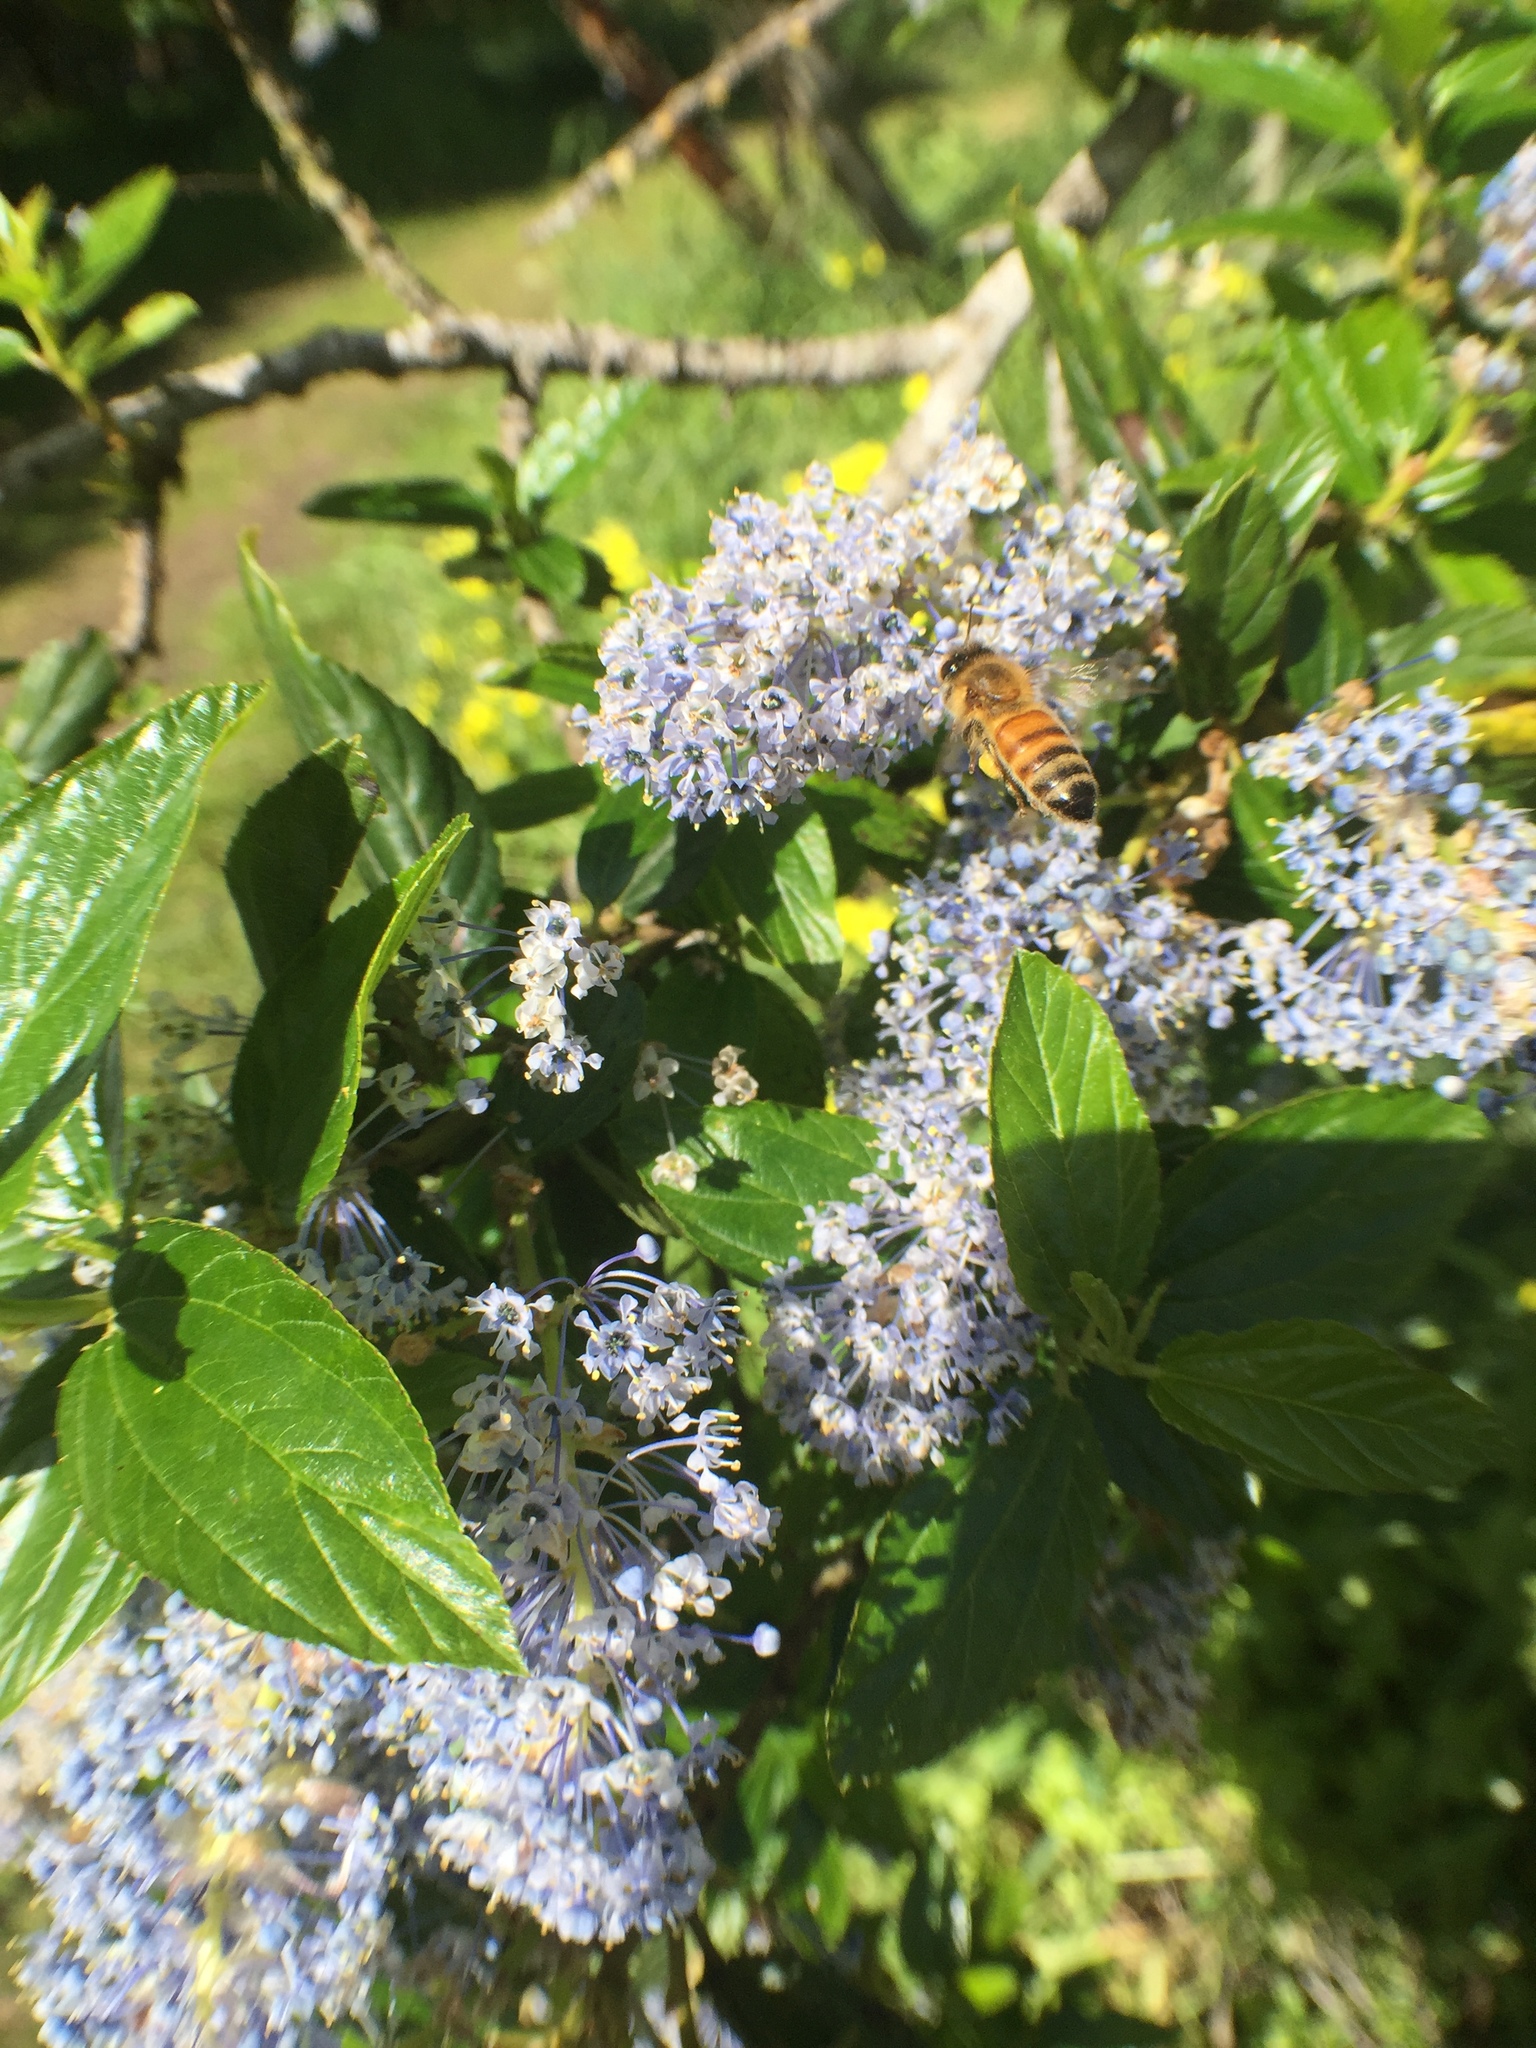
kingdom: Animalia
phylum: Arthropoda
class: Insecta
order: Hymenoptera
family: Apidae
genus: Apis
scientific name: Apis mellifera
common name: Honey bee
